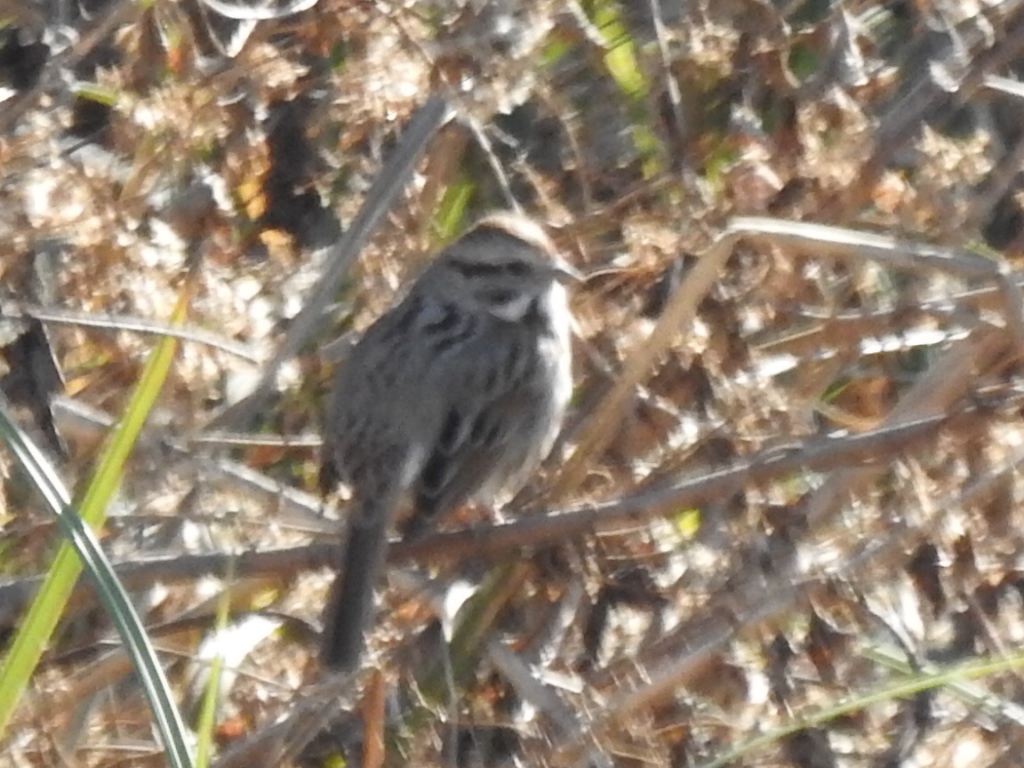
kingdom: Animalia
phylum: Chordata
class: Aves
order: Passeriformes
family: Passerellidae
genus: Melospiza
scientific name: Melospiza melodia
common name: Song sparrow
